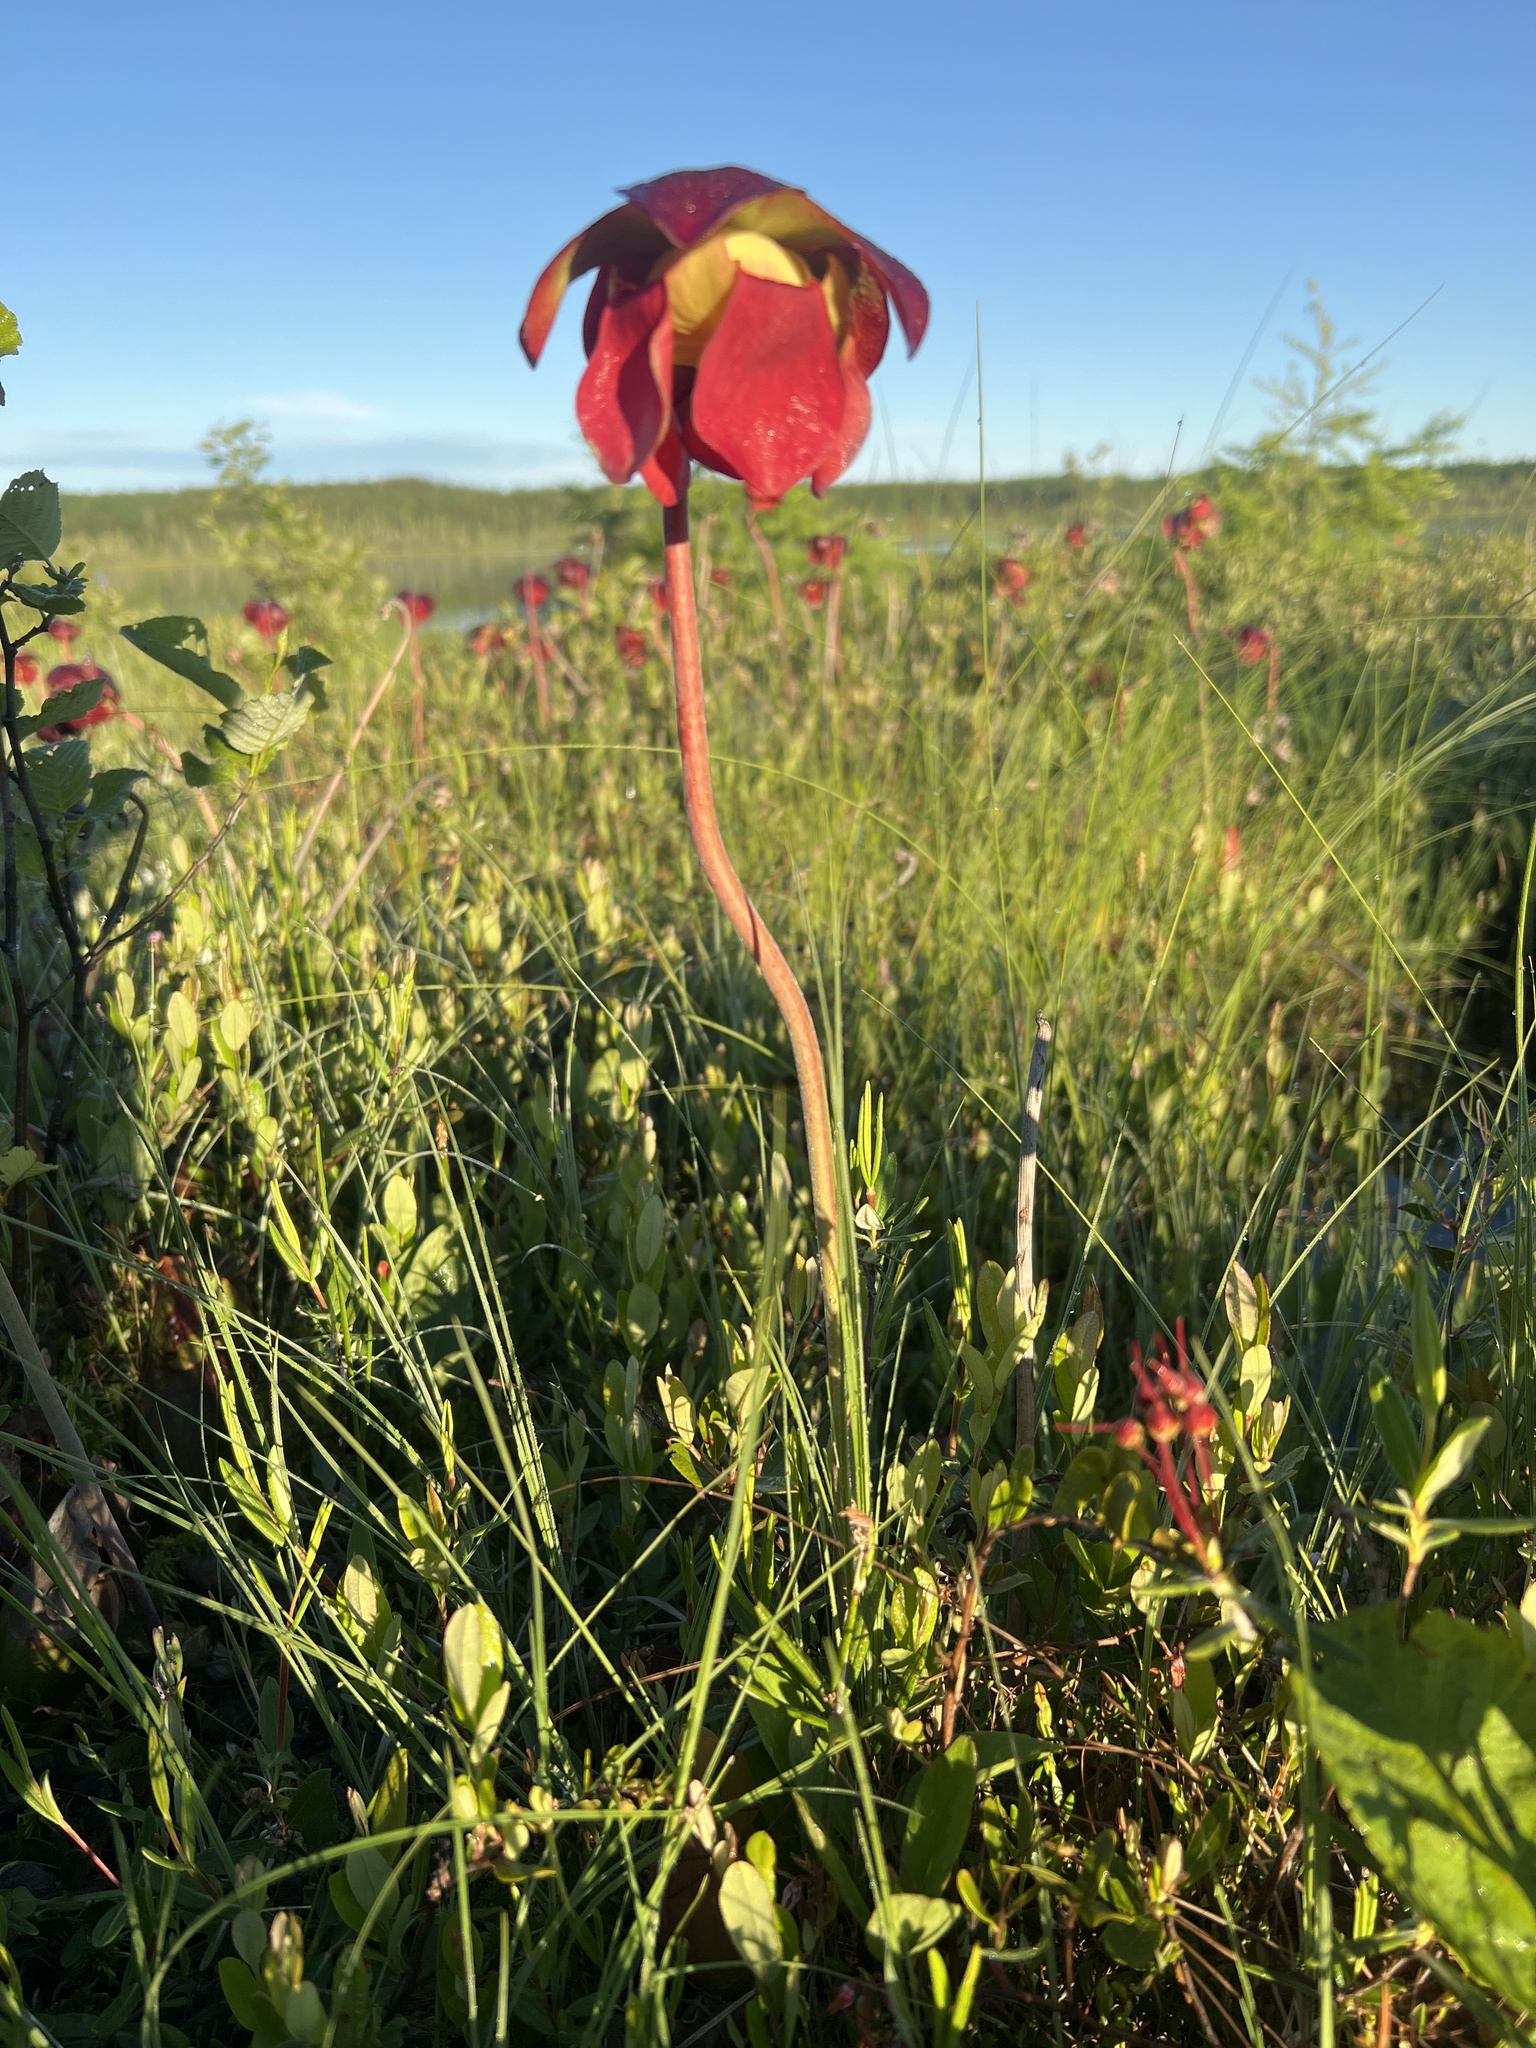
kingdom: Plantae
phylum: Tracheophyta
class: Magnoliopsida
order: Ericales
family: Sarraceniaceae
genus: Sarracenia
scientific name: Sarracenia purpurea
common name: Pitcherplant
